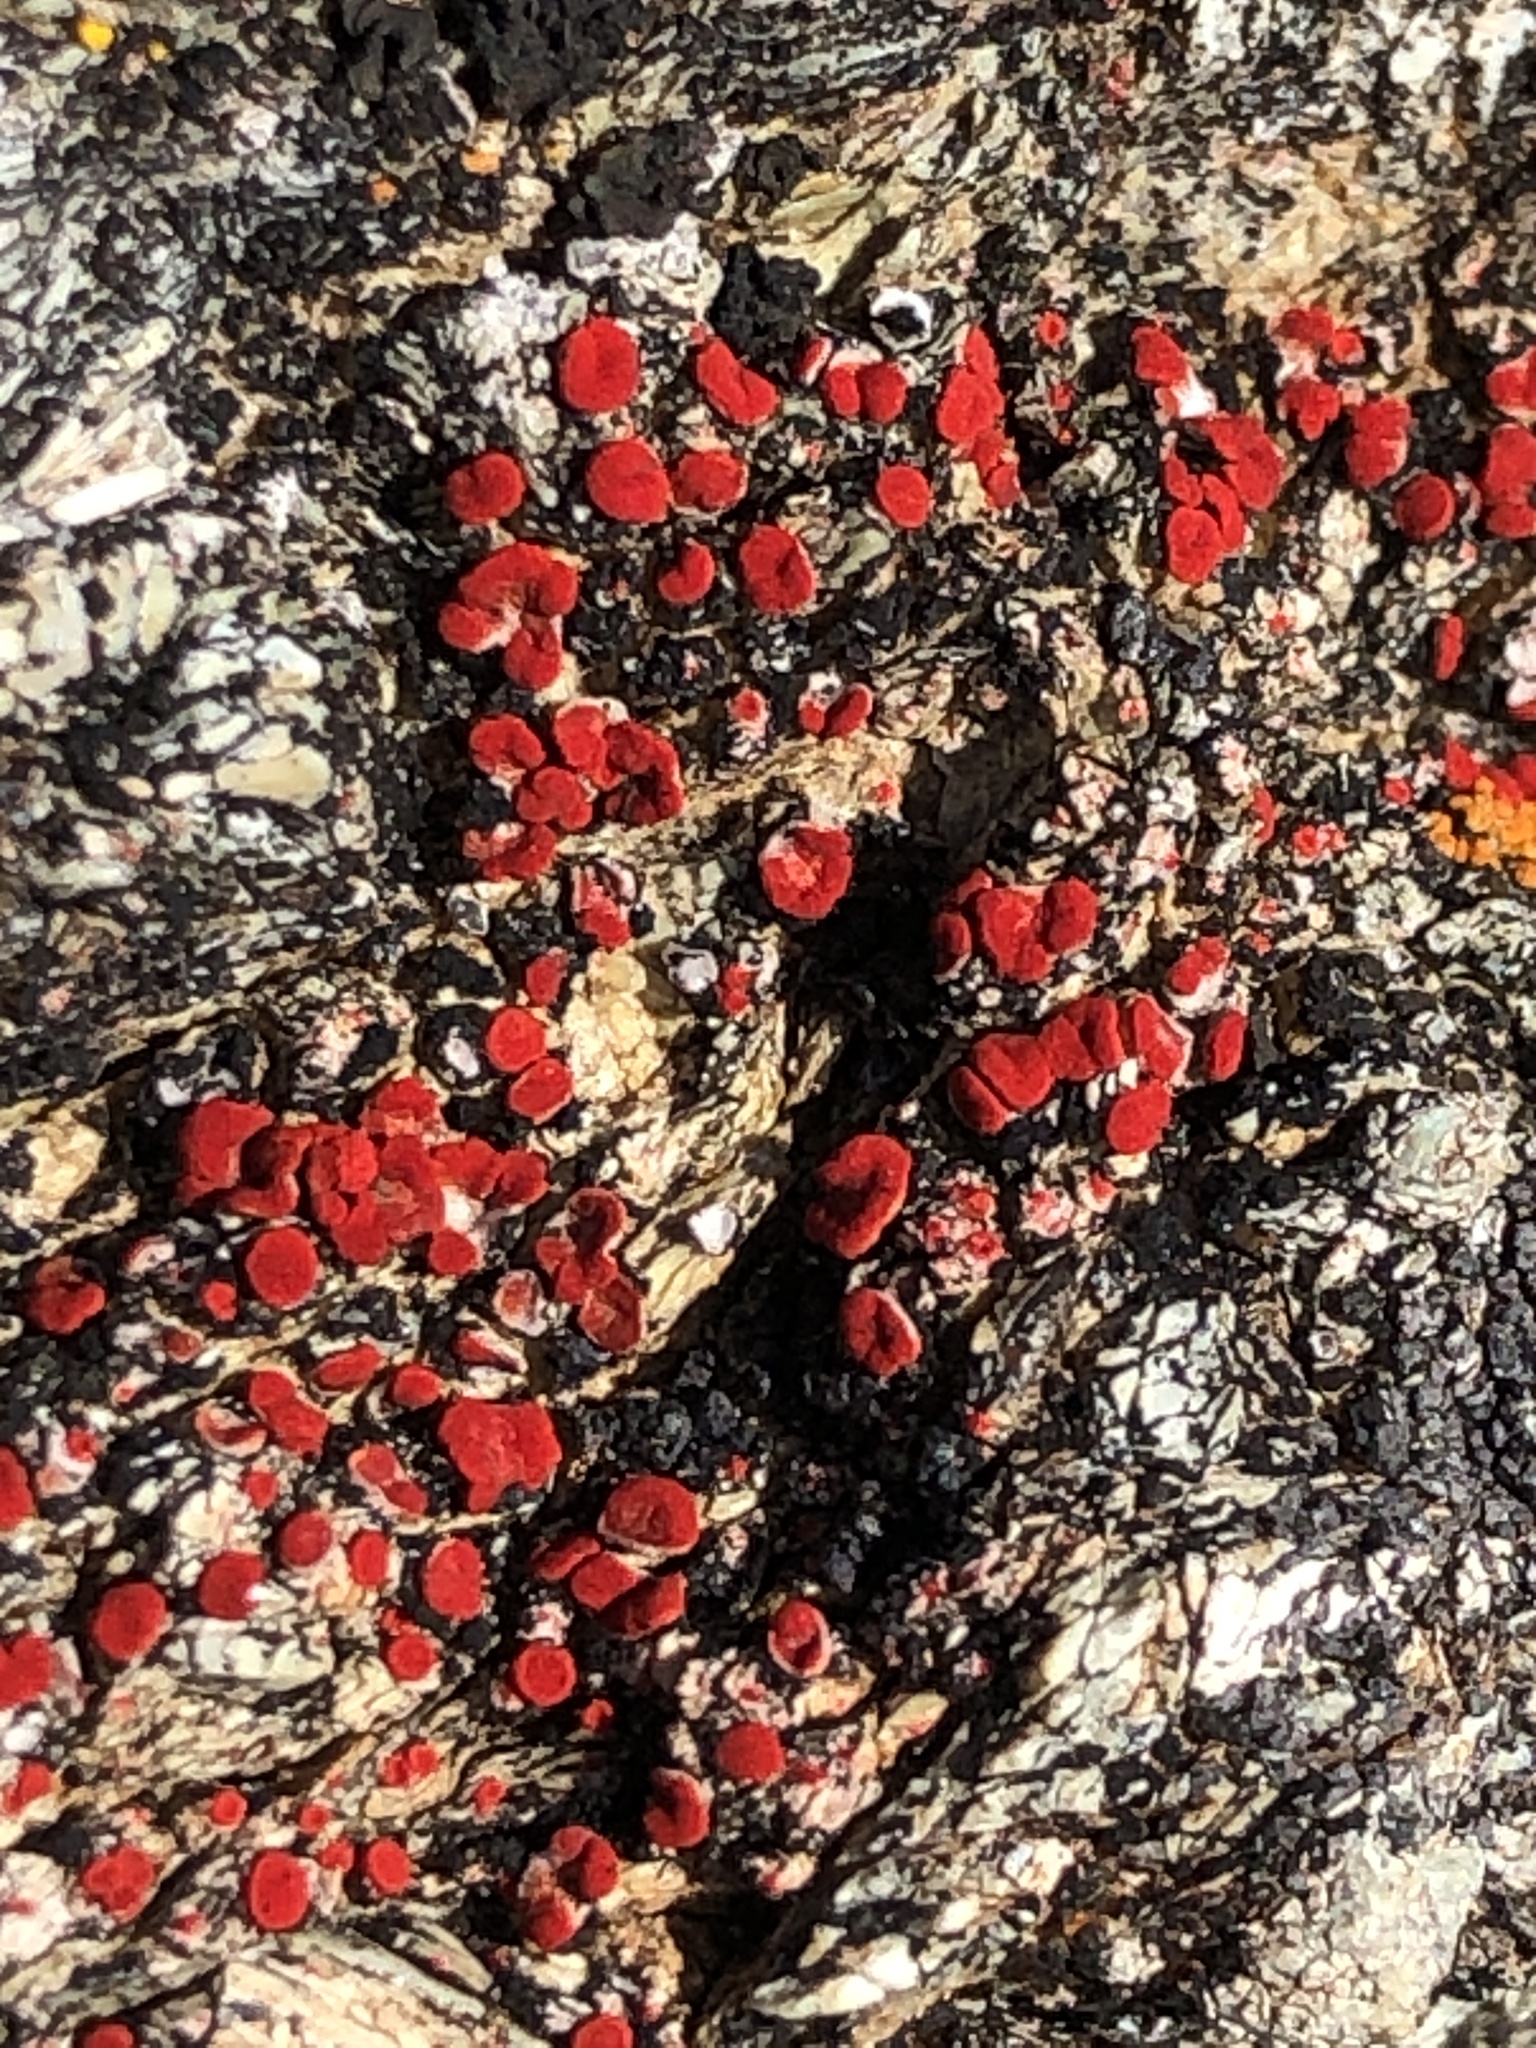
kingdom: Fungi
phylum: Ascomycota
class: Lecanoromycetes
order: Teloschistales
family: Teloschistaceae
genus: Tomnashia
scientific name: Tomnashia luteominia
